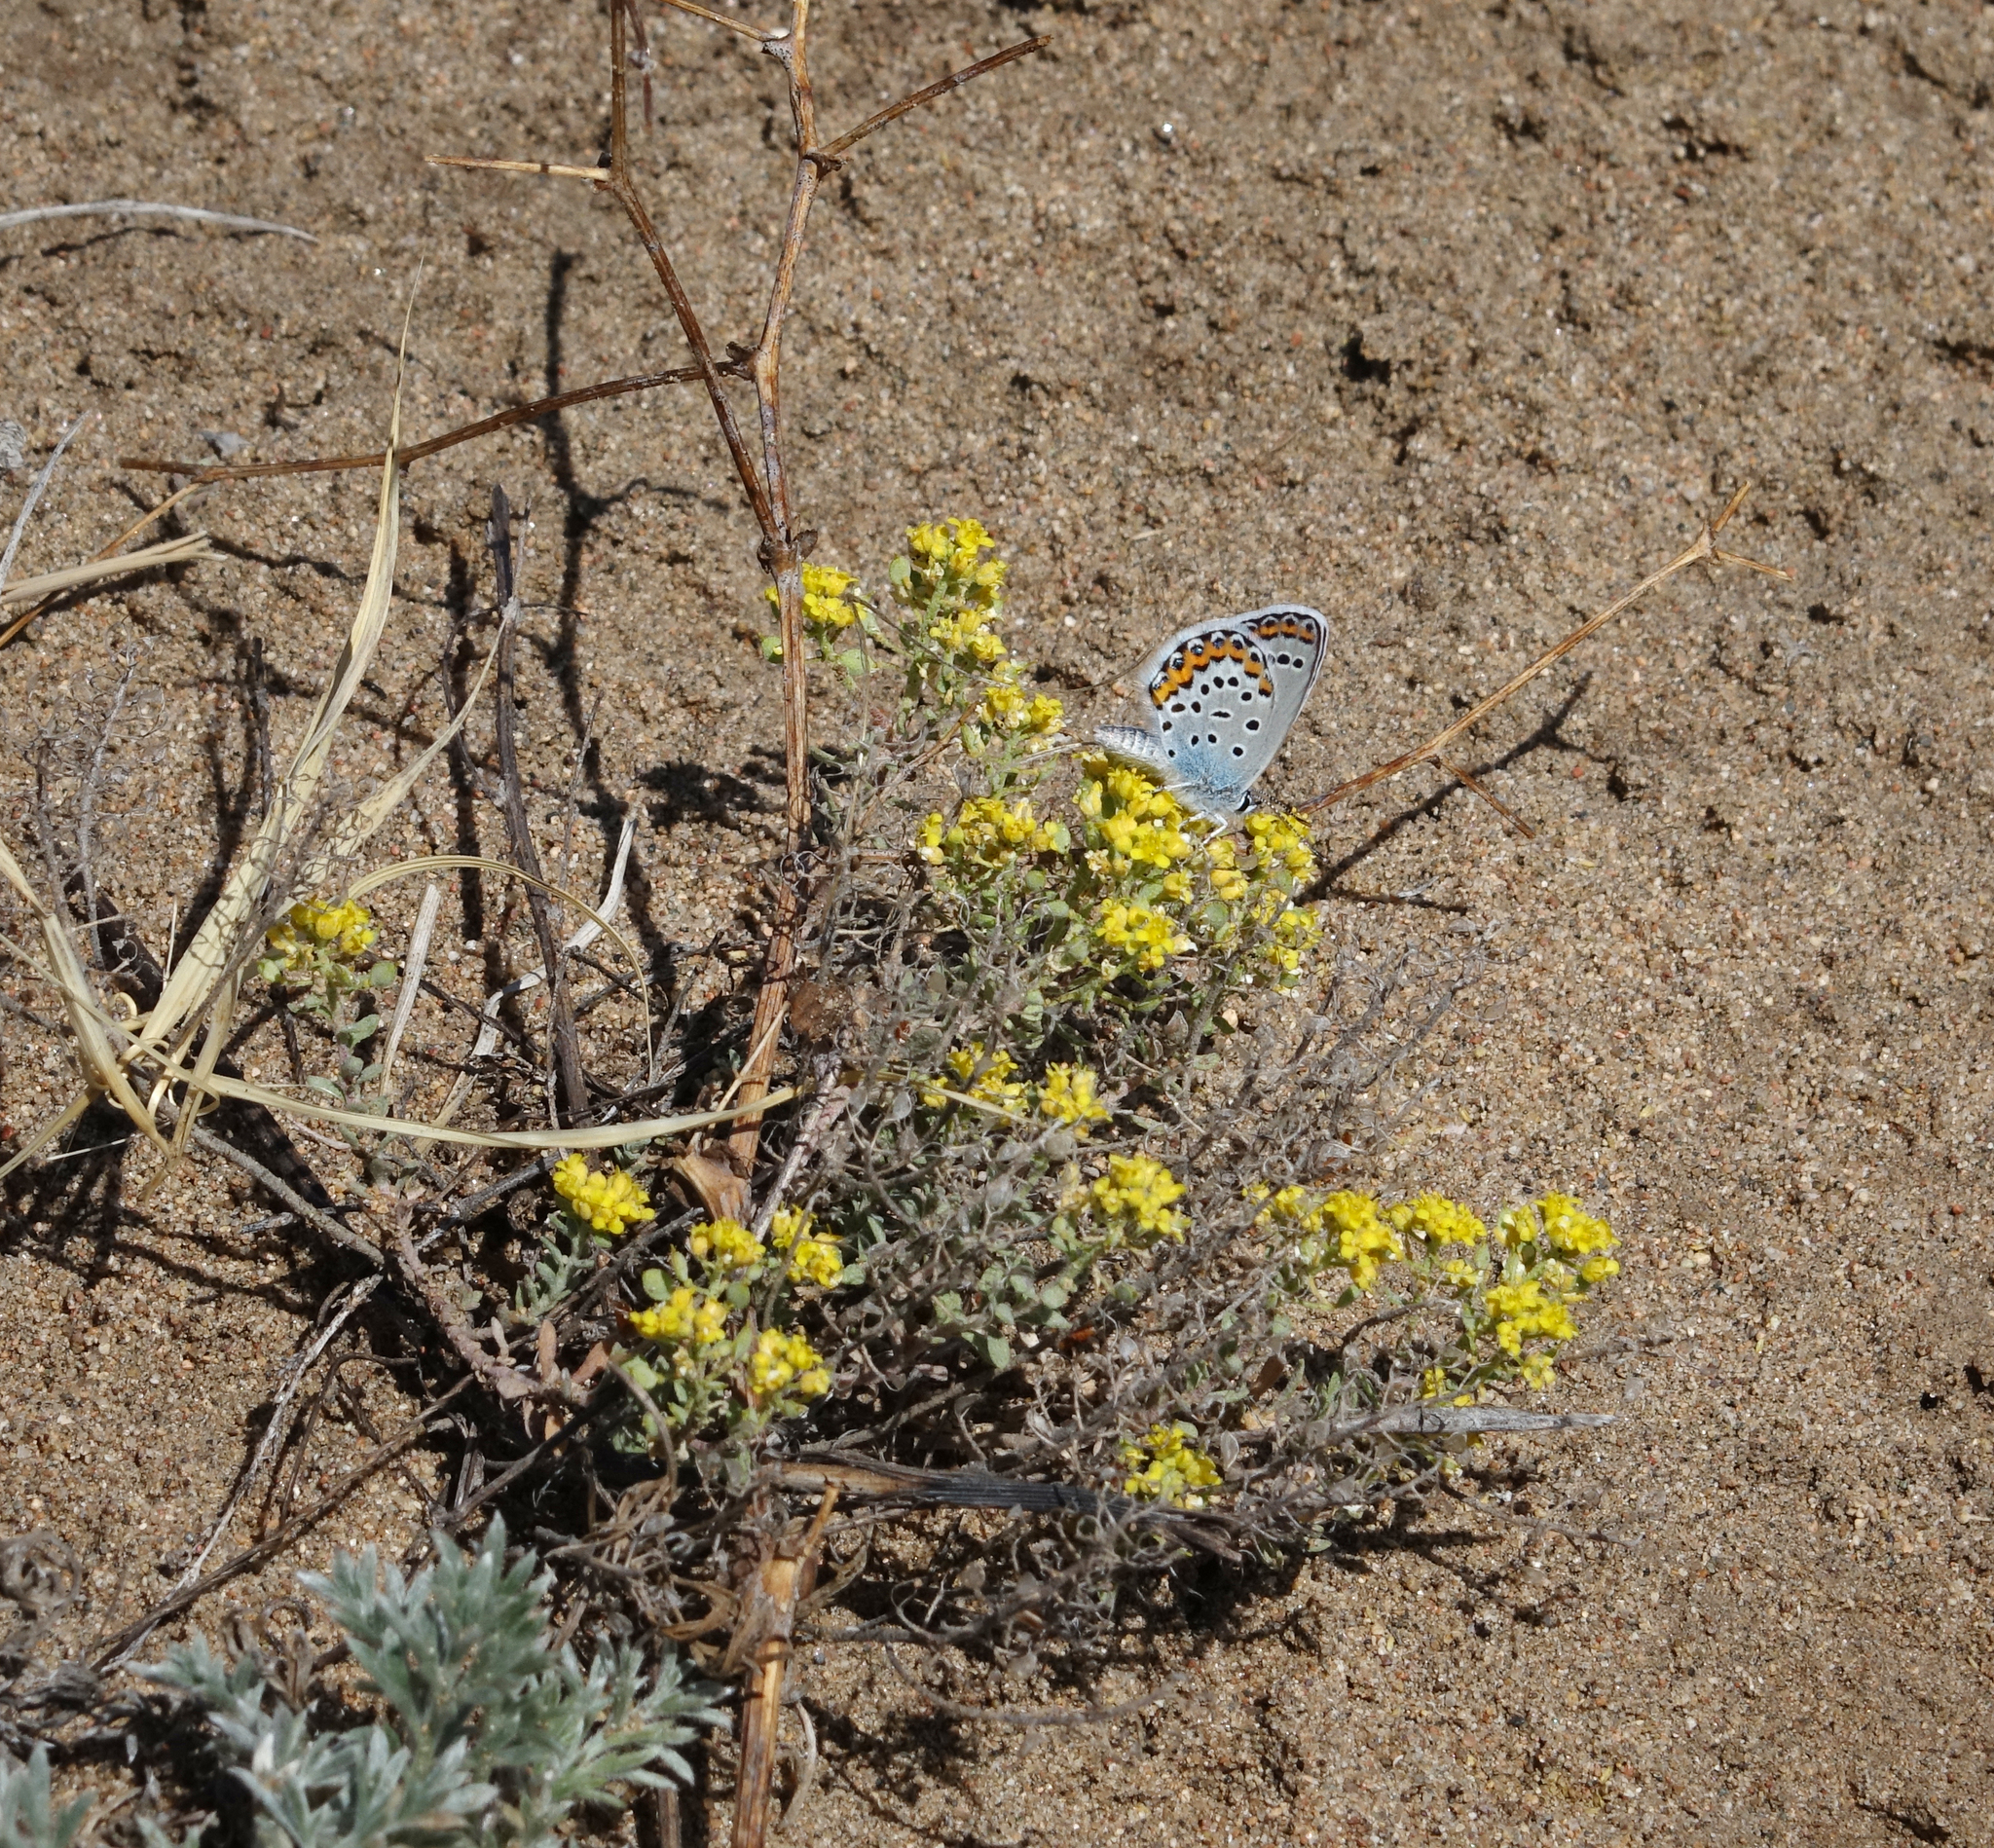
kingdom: Plantae
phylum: Tracheophyta
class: Magnoliopsida
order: Brassicales
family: Brassicaceae
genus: Odontarrhena
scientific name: Odontarrhena obovata
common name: American alyssum
